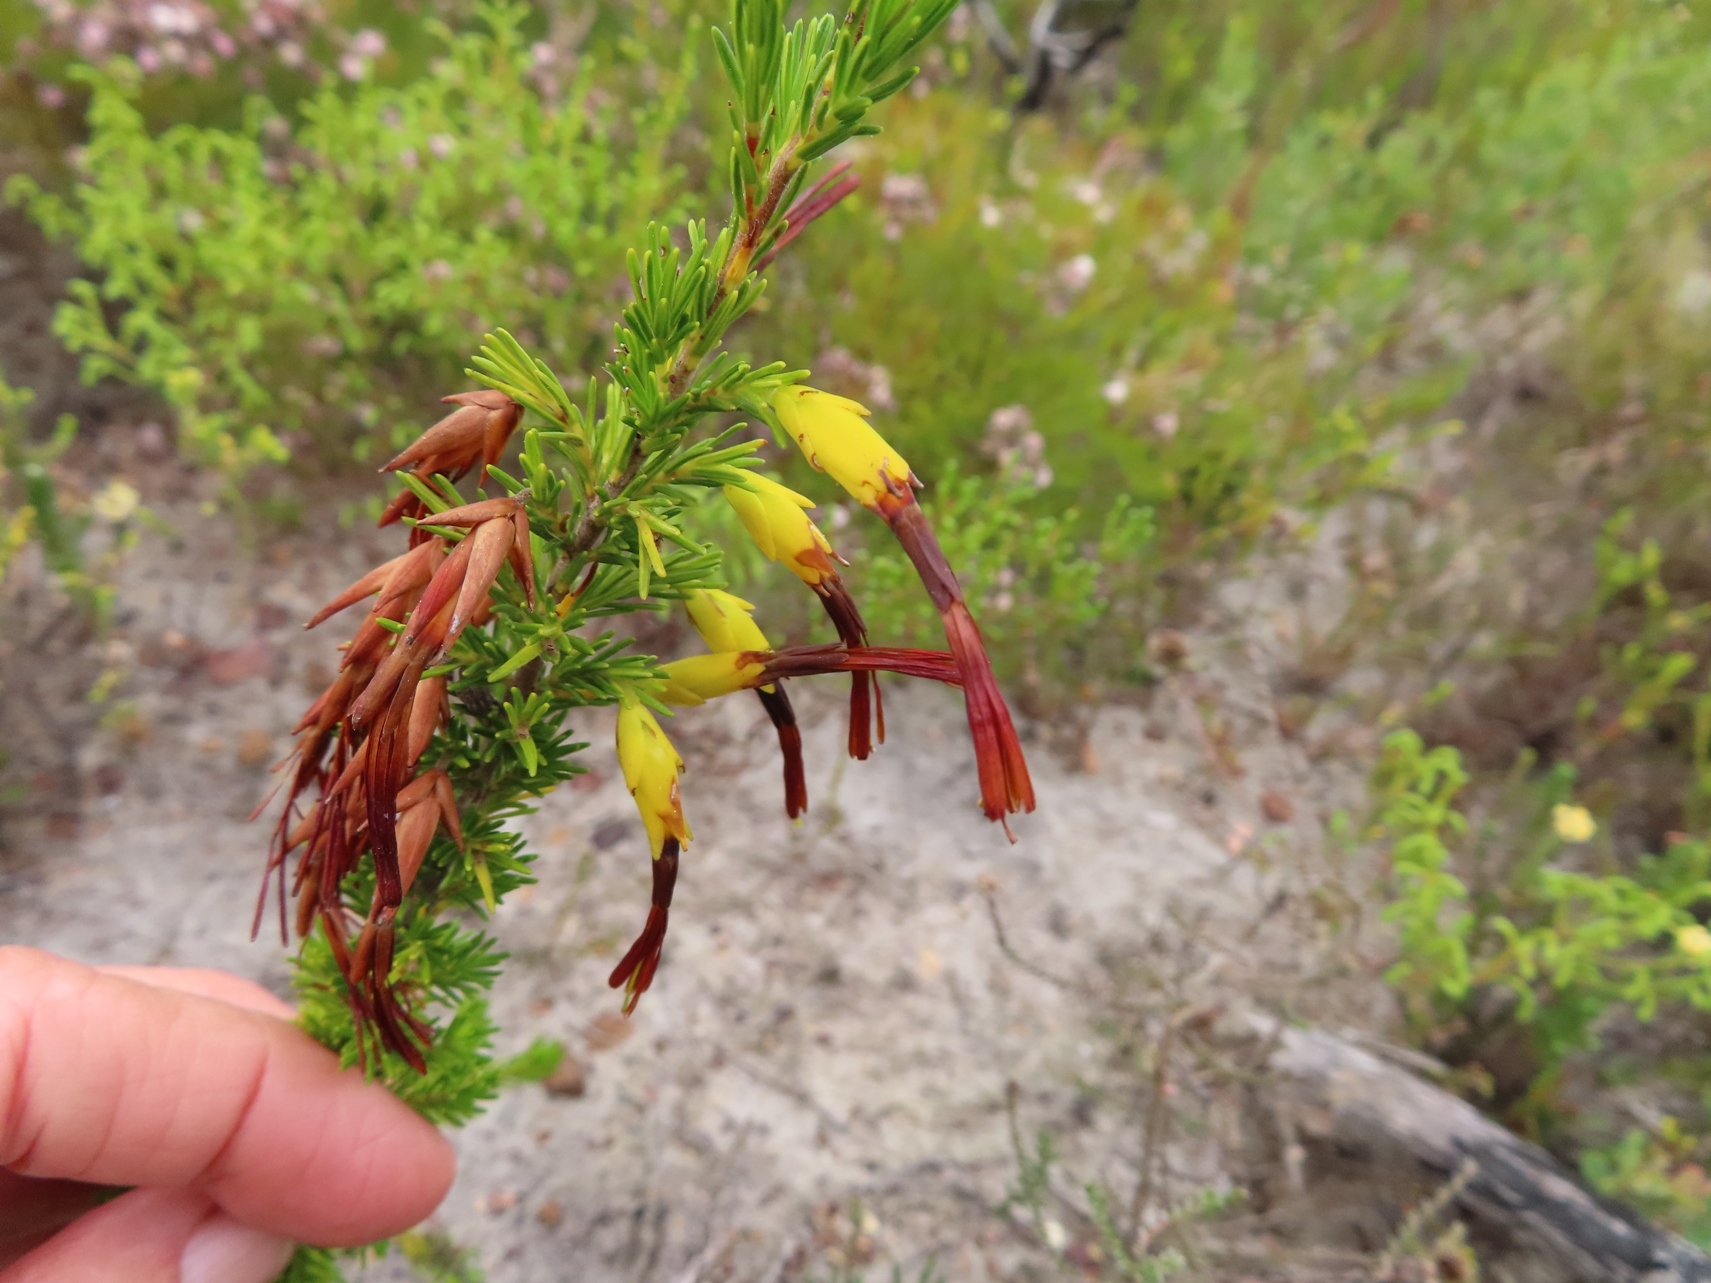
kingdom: Plantae
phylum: Tracheophyta
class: Magnoliopsida
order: Ericales
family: Ericaceae
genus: Erica
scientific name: Erica melastoma
